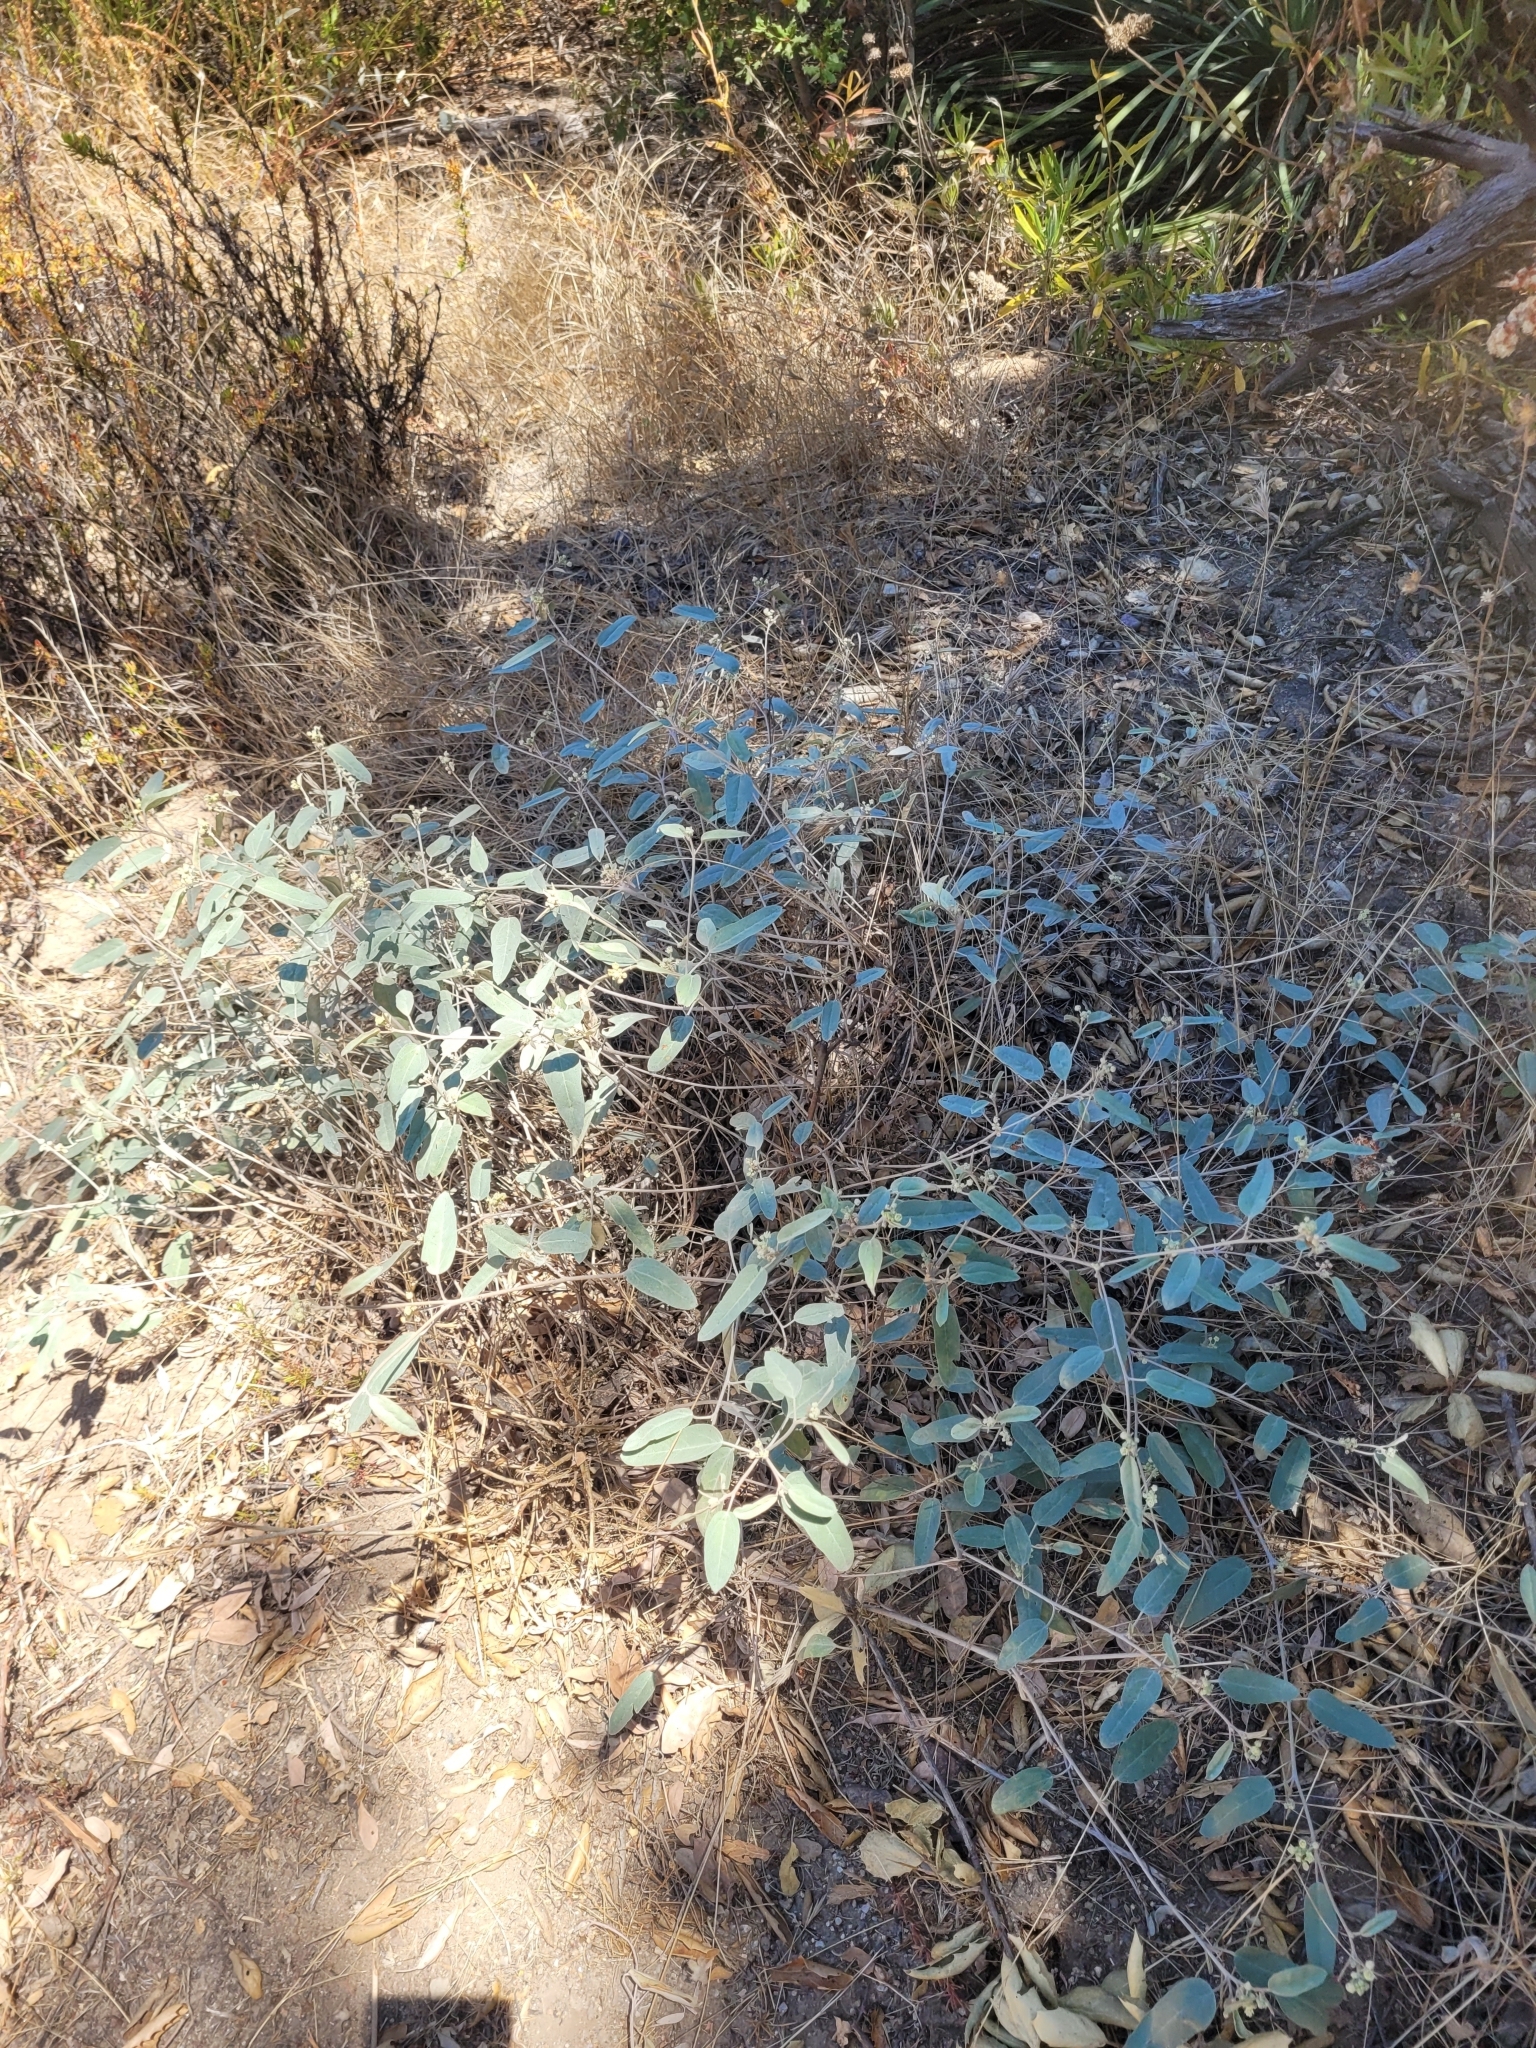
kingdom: Plantae
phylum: Tracheophyta
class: Magnoliopsida
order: Malpighiales
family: Euphorbiaceae
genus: Croton
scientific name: Croton californicus
